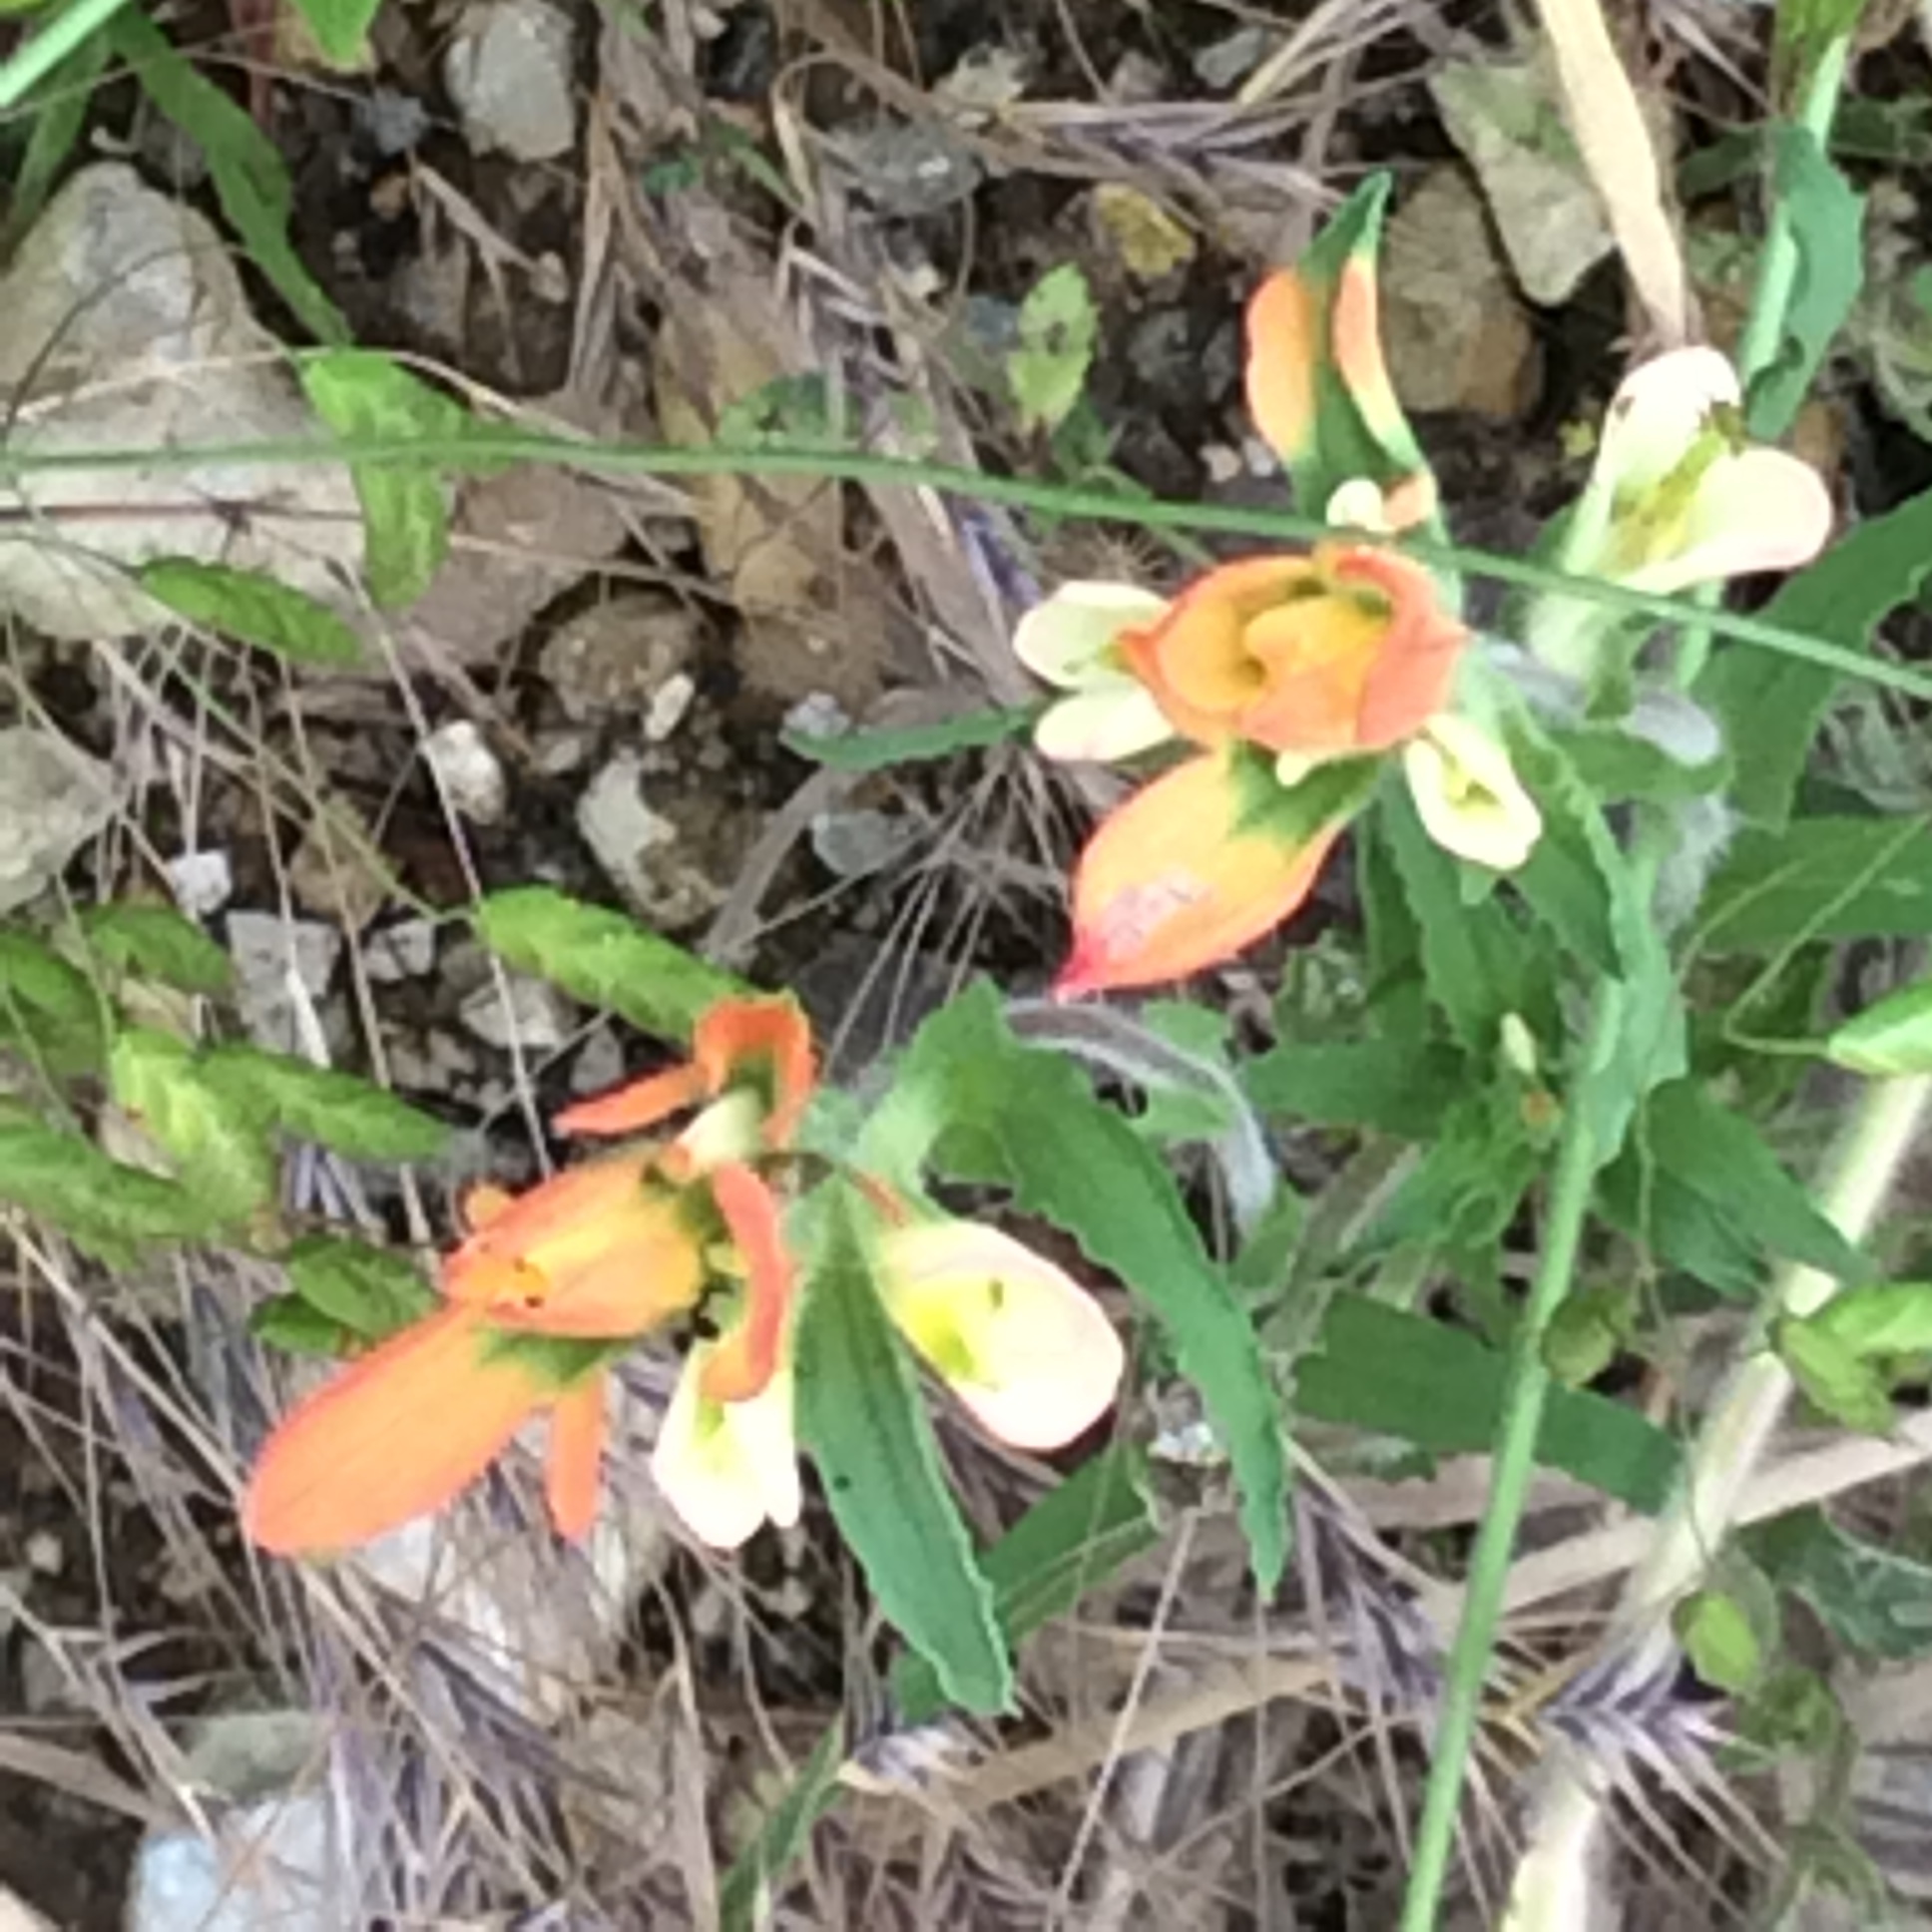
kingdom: Plantae
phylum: Tracheophyta
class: Magnoliopsida
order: Lamiales
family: Orobanchaceae
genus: Castilleja
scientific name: Castilleja indivisa
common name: Texas paintbrush
